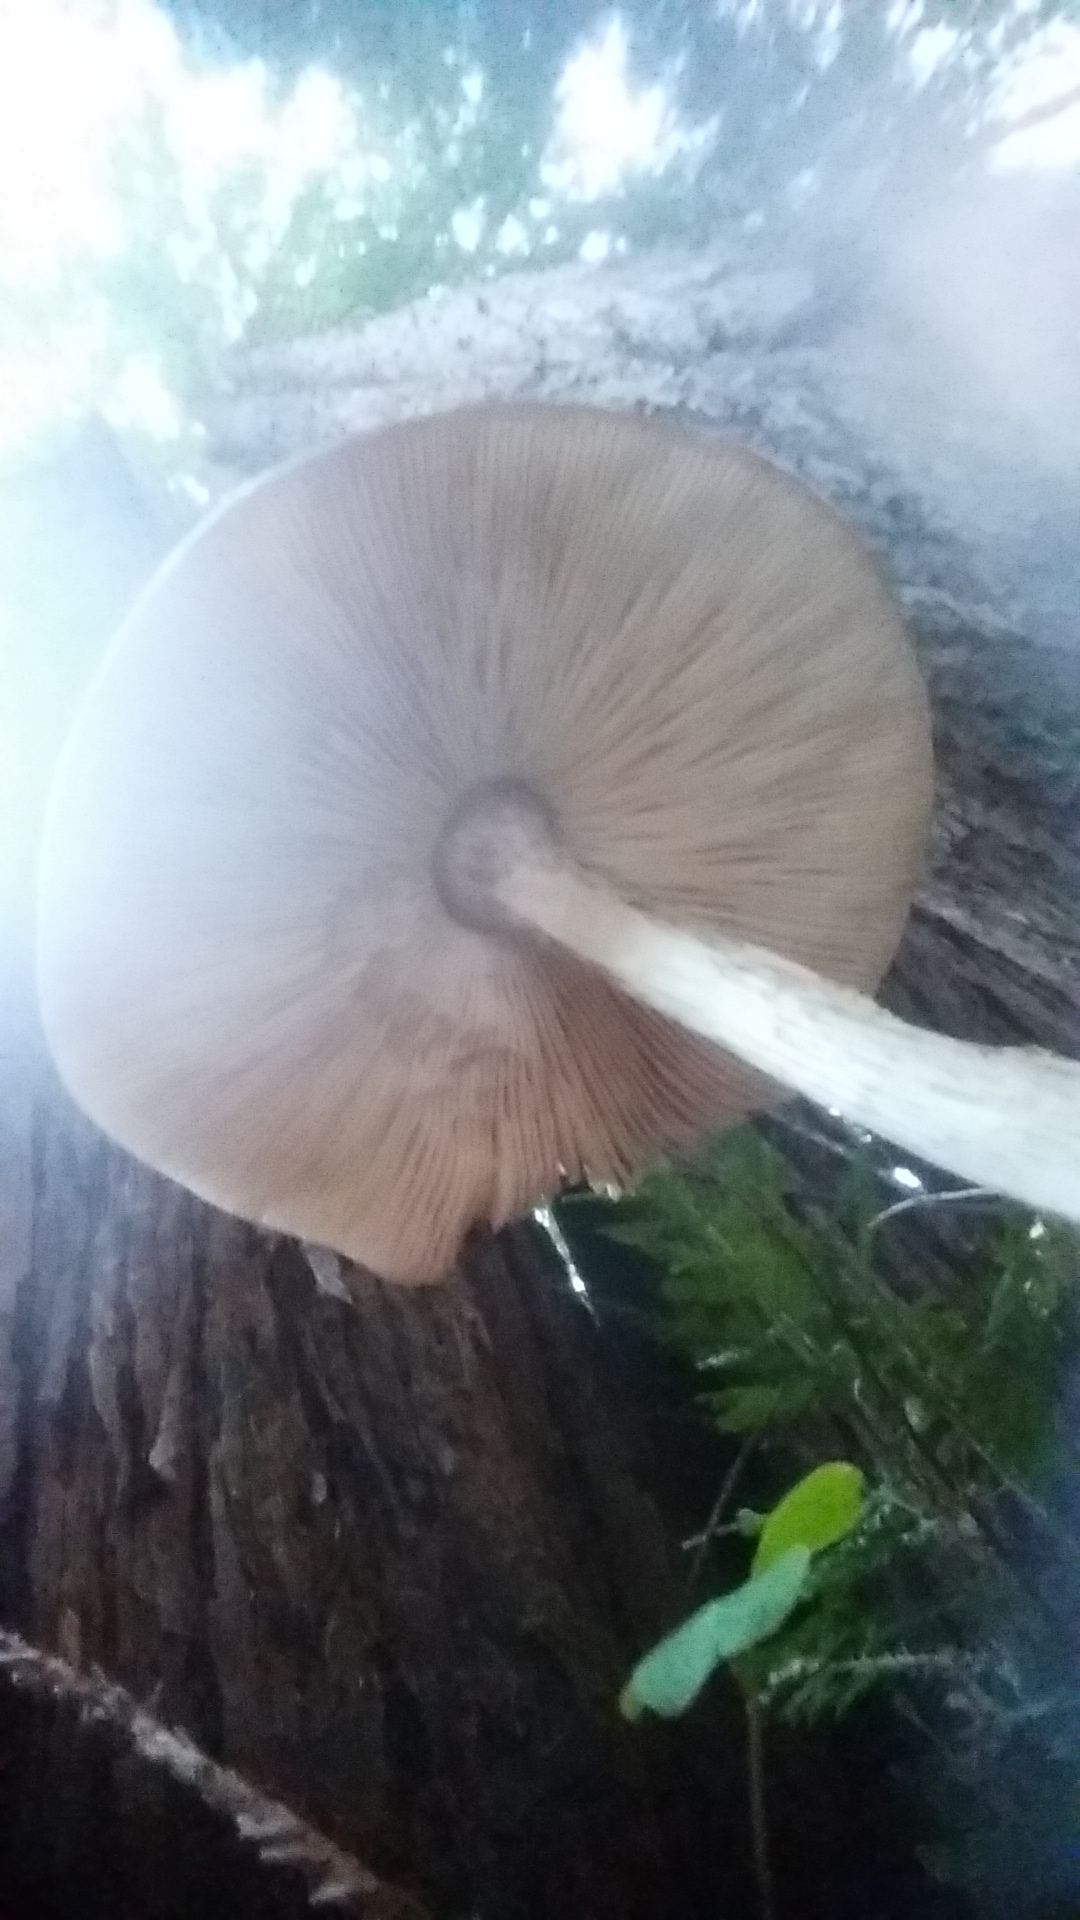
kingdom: Fungi
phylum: Basidiomycota
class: Agaricomycetes
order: Agaricales
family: Pluteaceae
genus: Pluteus
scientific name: Pluteus exilis
